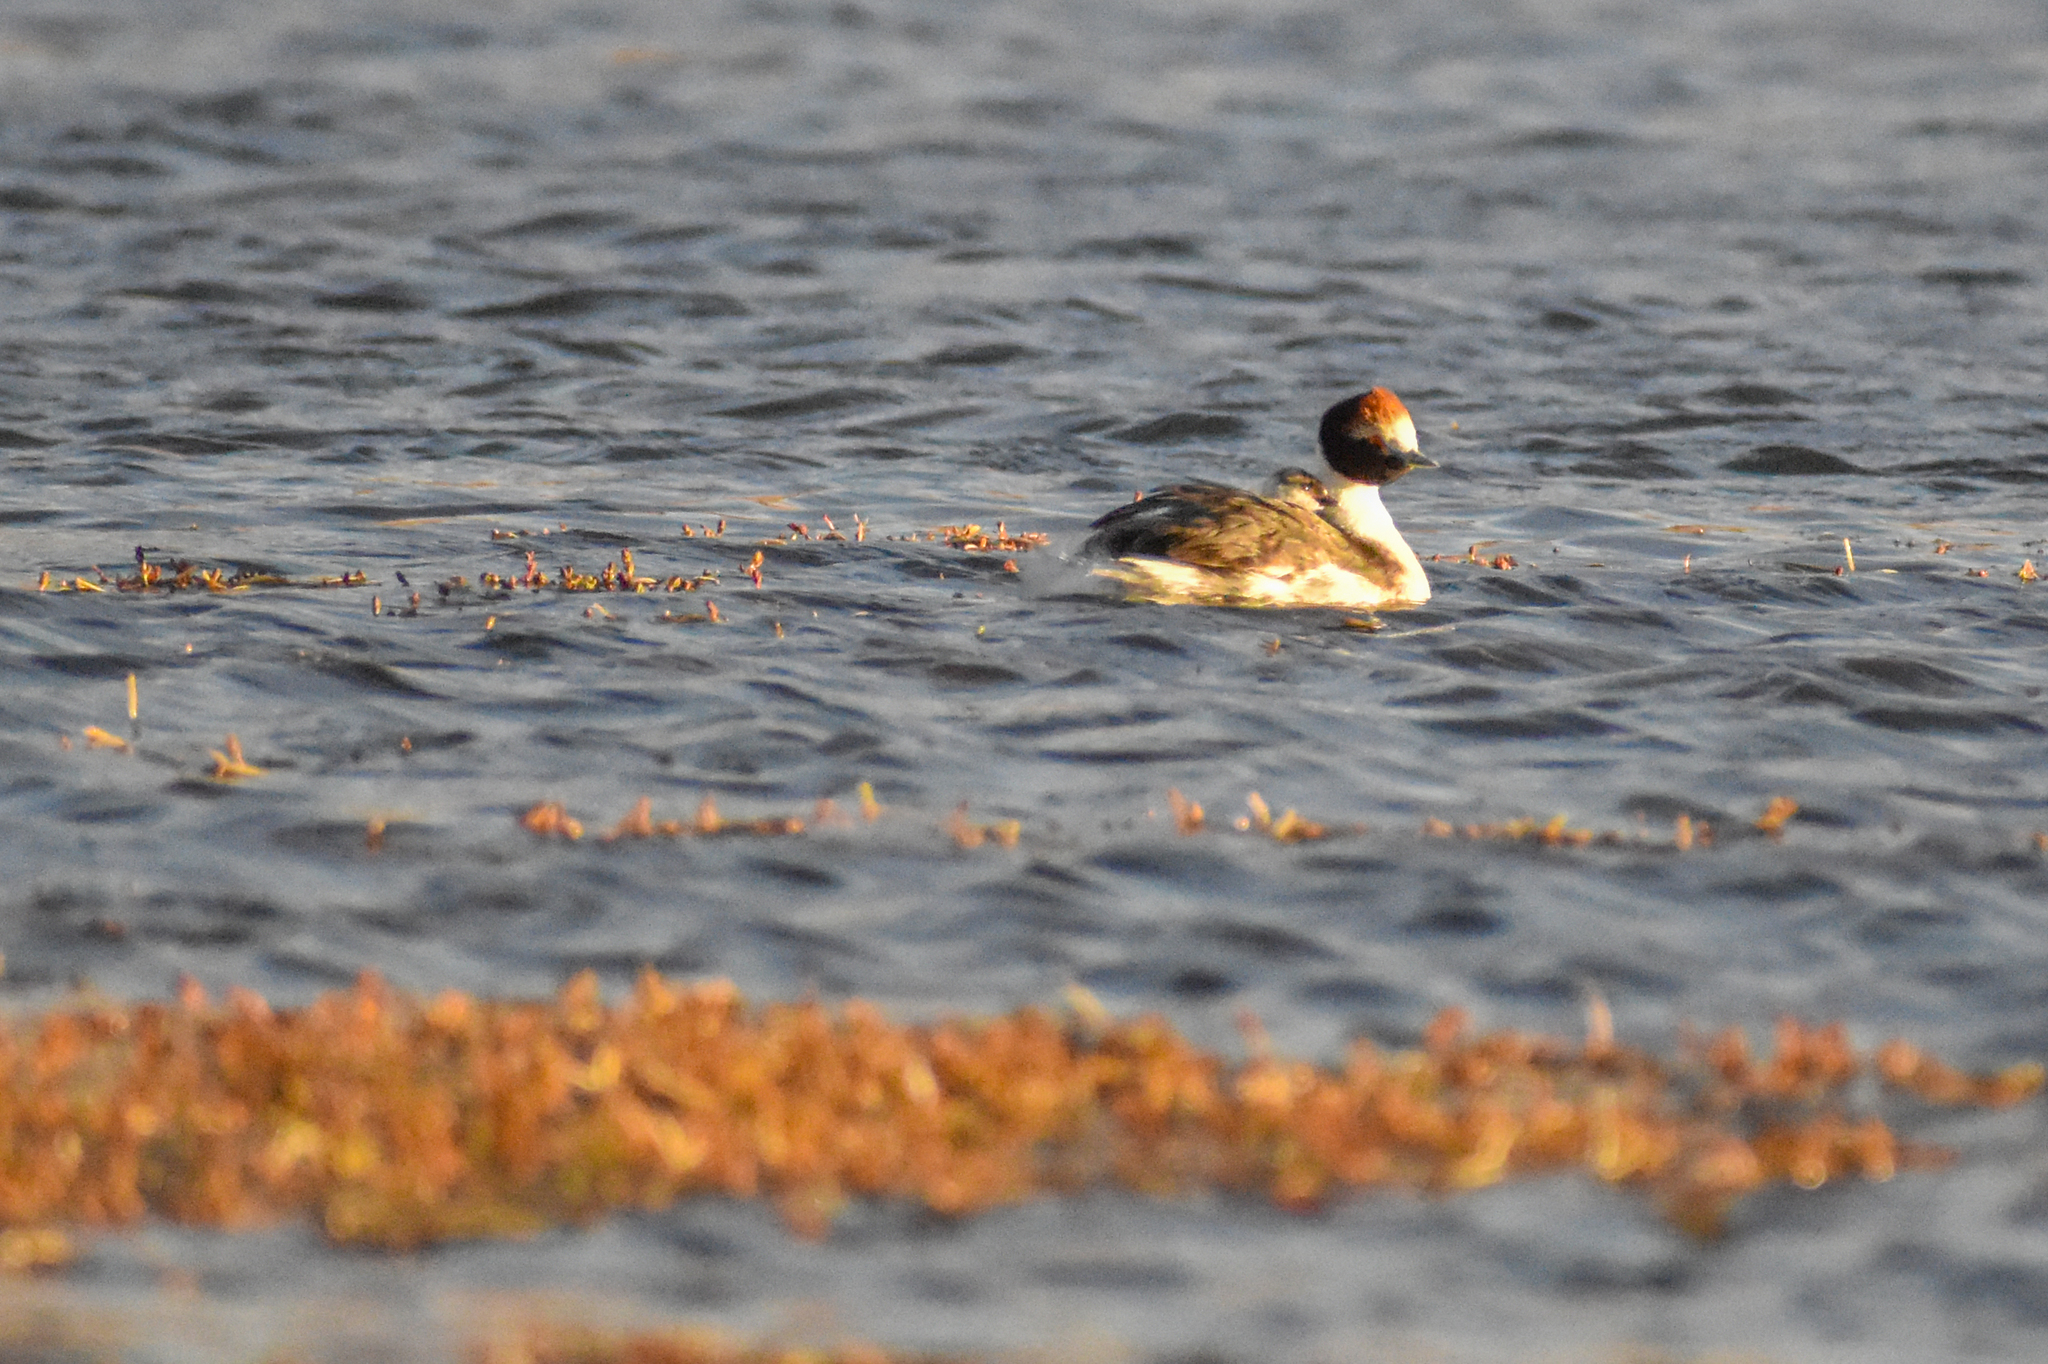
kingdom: Animalia
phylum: Chordata
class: Aves
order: Podicipediformes
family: Podicipedidae
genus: Podiceps
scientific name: Podiceps gallardoi
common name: Hooded grebe
